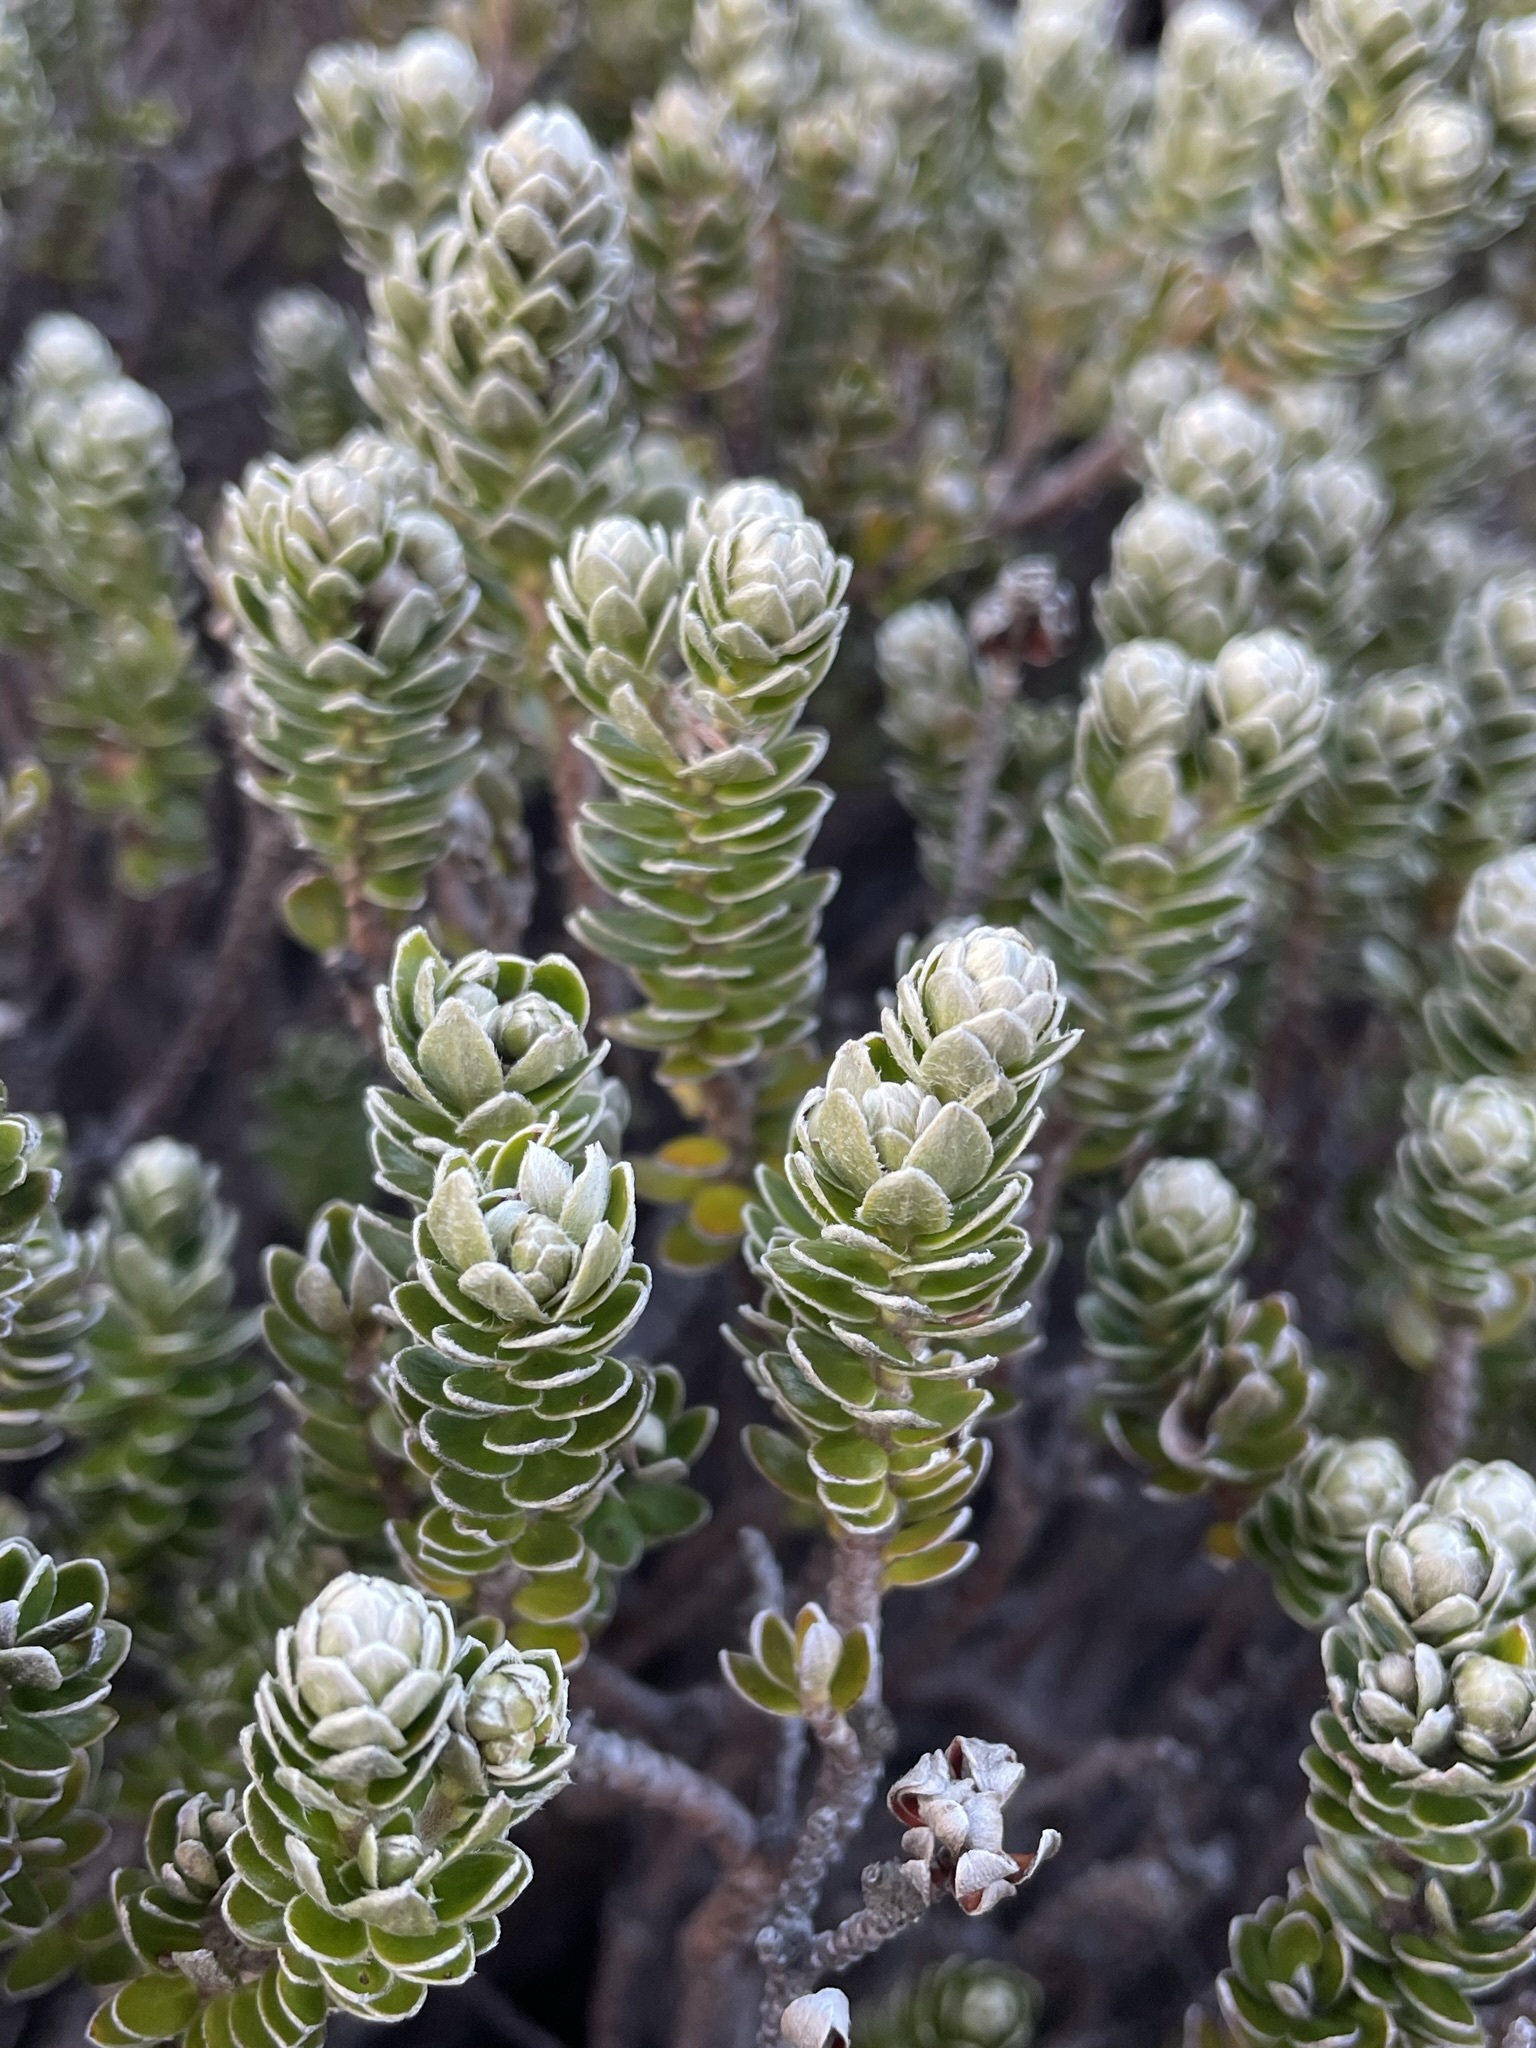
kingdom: Plantae
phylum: Tracheophyta
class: Magnoliopsida
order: Malvales
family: Thymelaeaceae
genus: Pimelea
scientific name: Pimelea sericea
